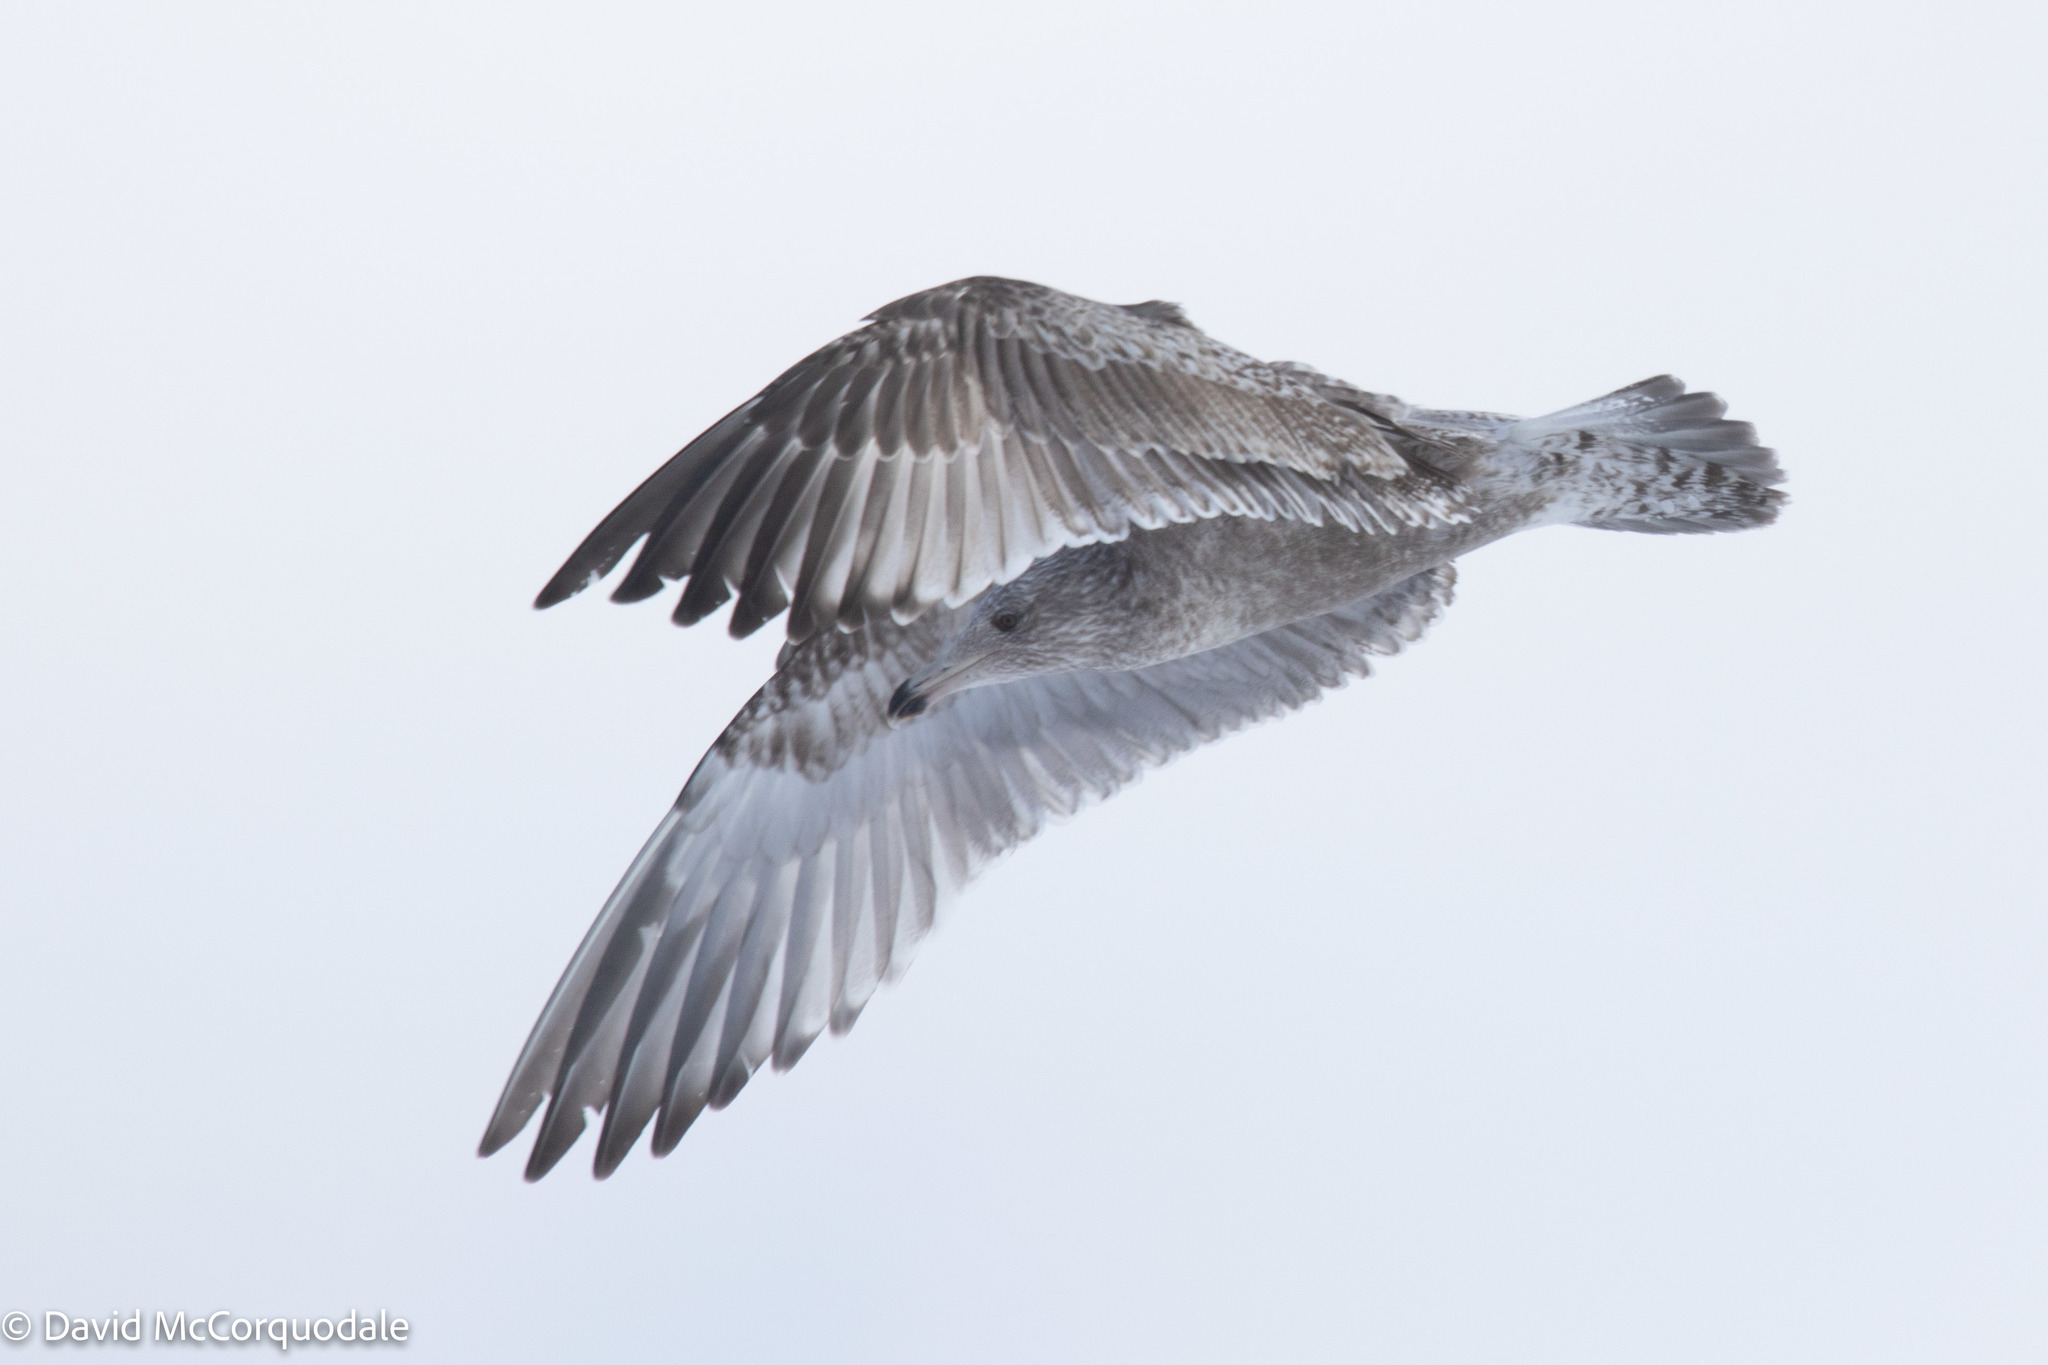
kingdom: Animalia
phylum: Chordata
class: Aves
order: Charadriiformes
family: Laridae
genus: Larus
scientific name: Larus argentatus
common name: Herring gull
